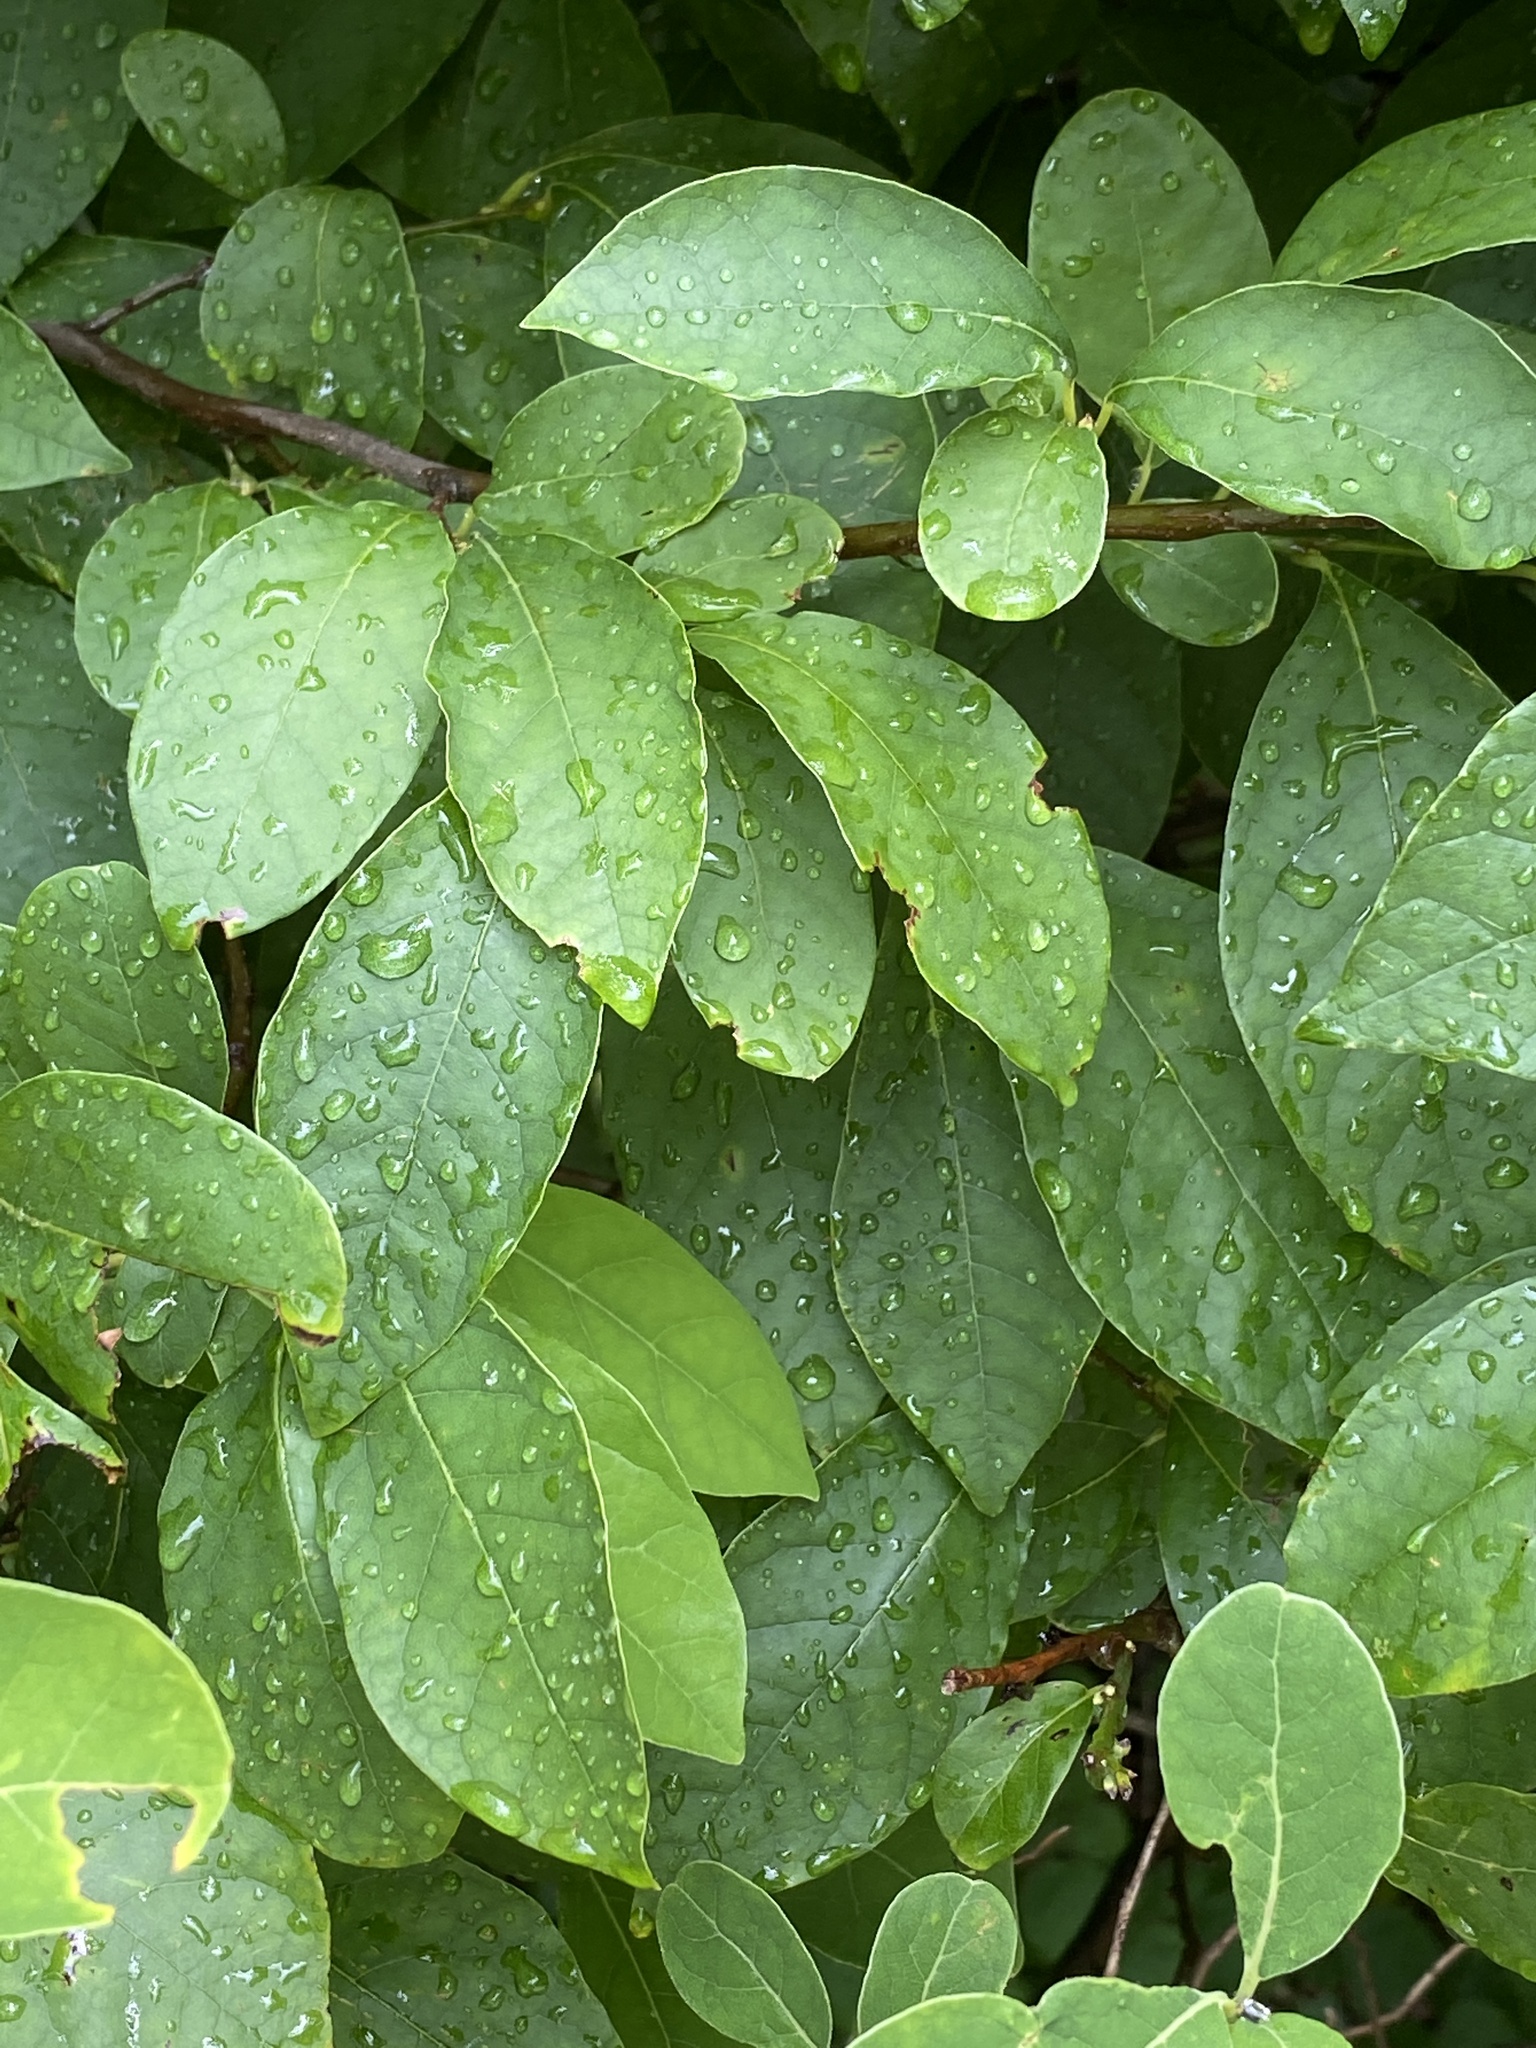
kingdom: Plantae
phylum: Tracheophyta
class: Magnoliopsida
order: Laurales
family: Lauraceae
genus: Lindera
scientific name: Lindera benzoin
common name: Spicebush
